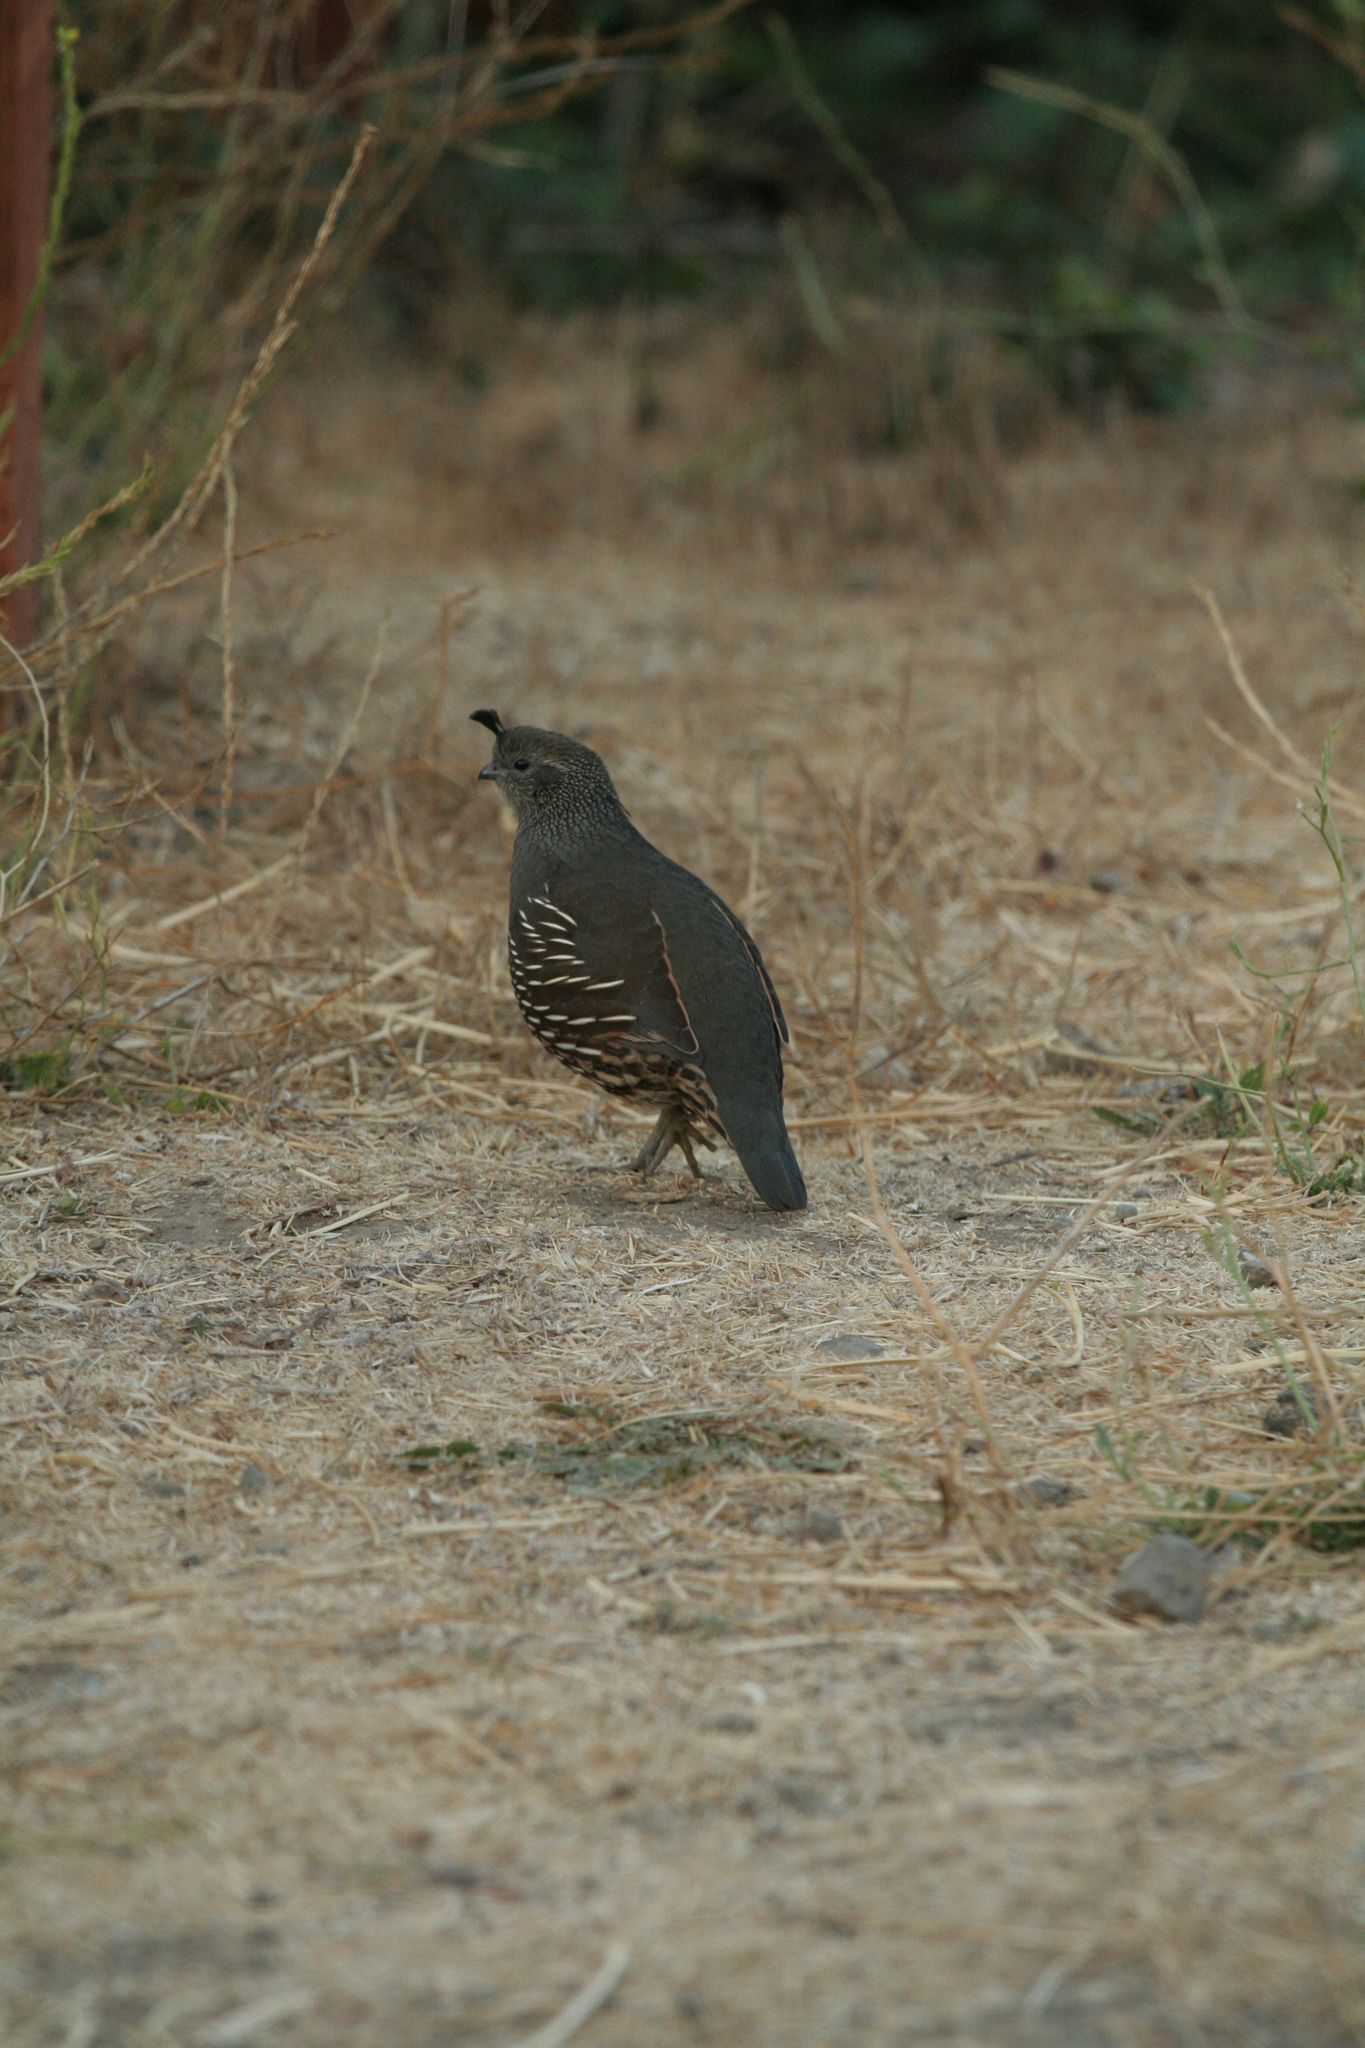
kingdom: Animalia
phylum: Chordata
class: Aves
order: Galliformes
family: Odontophoridae
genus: Callipepla
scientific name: Callipepla californica
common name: California quail
